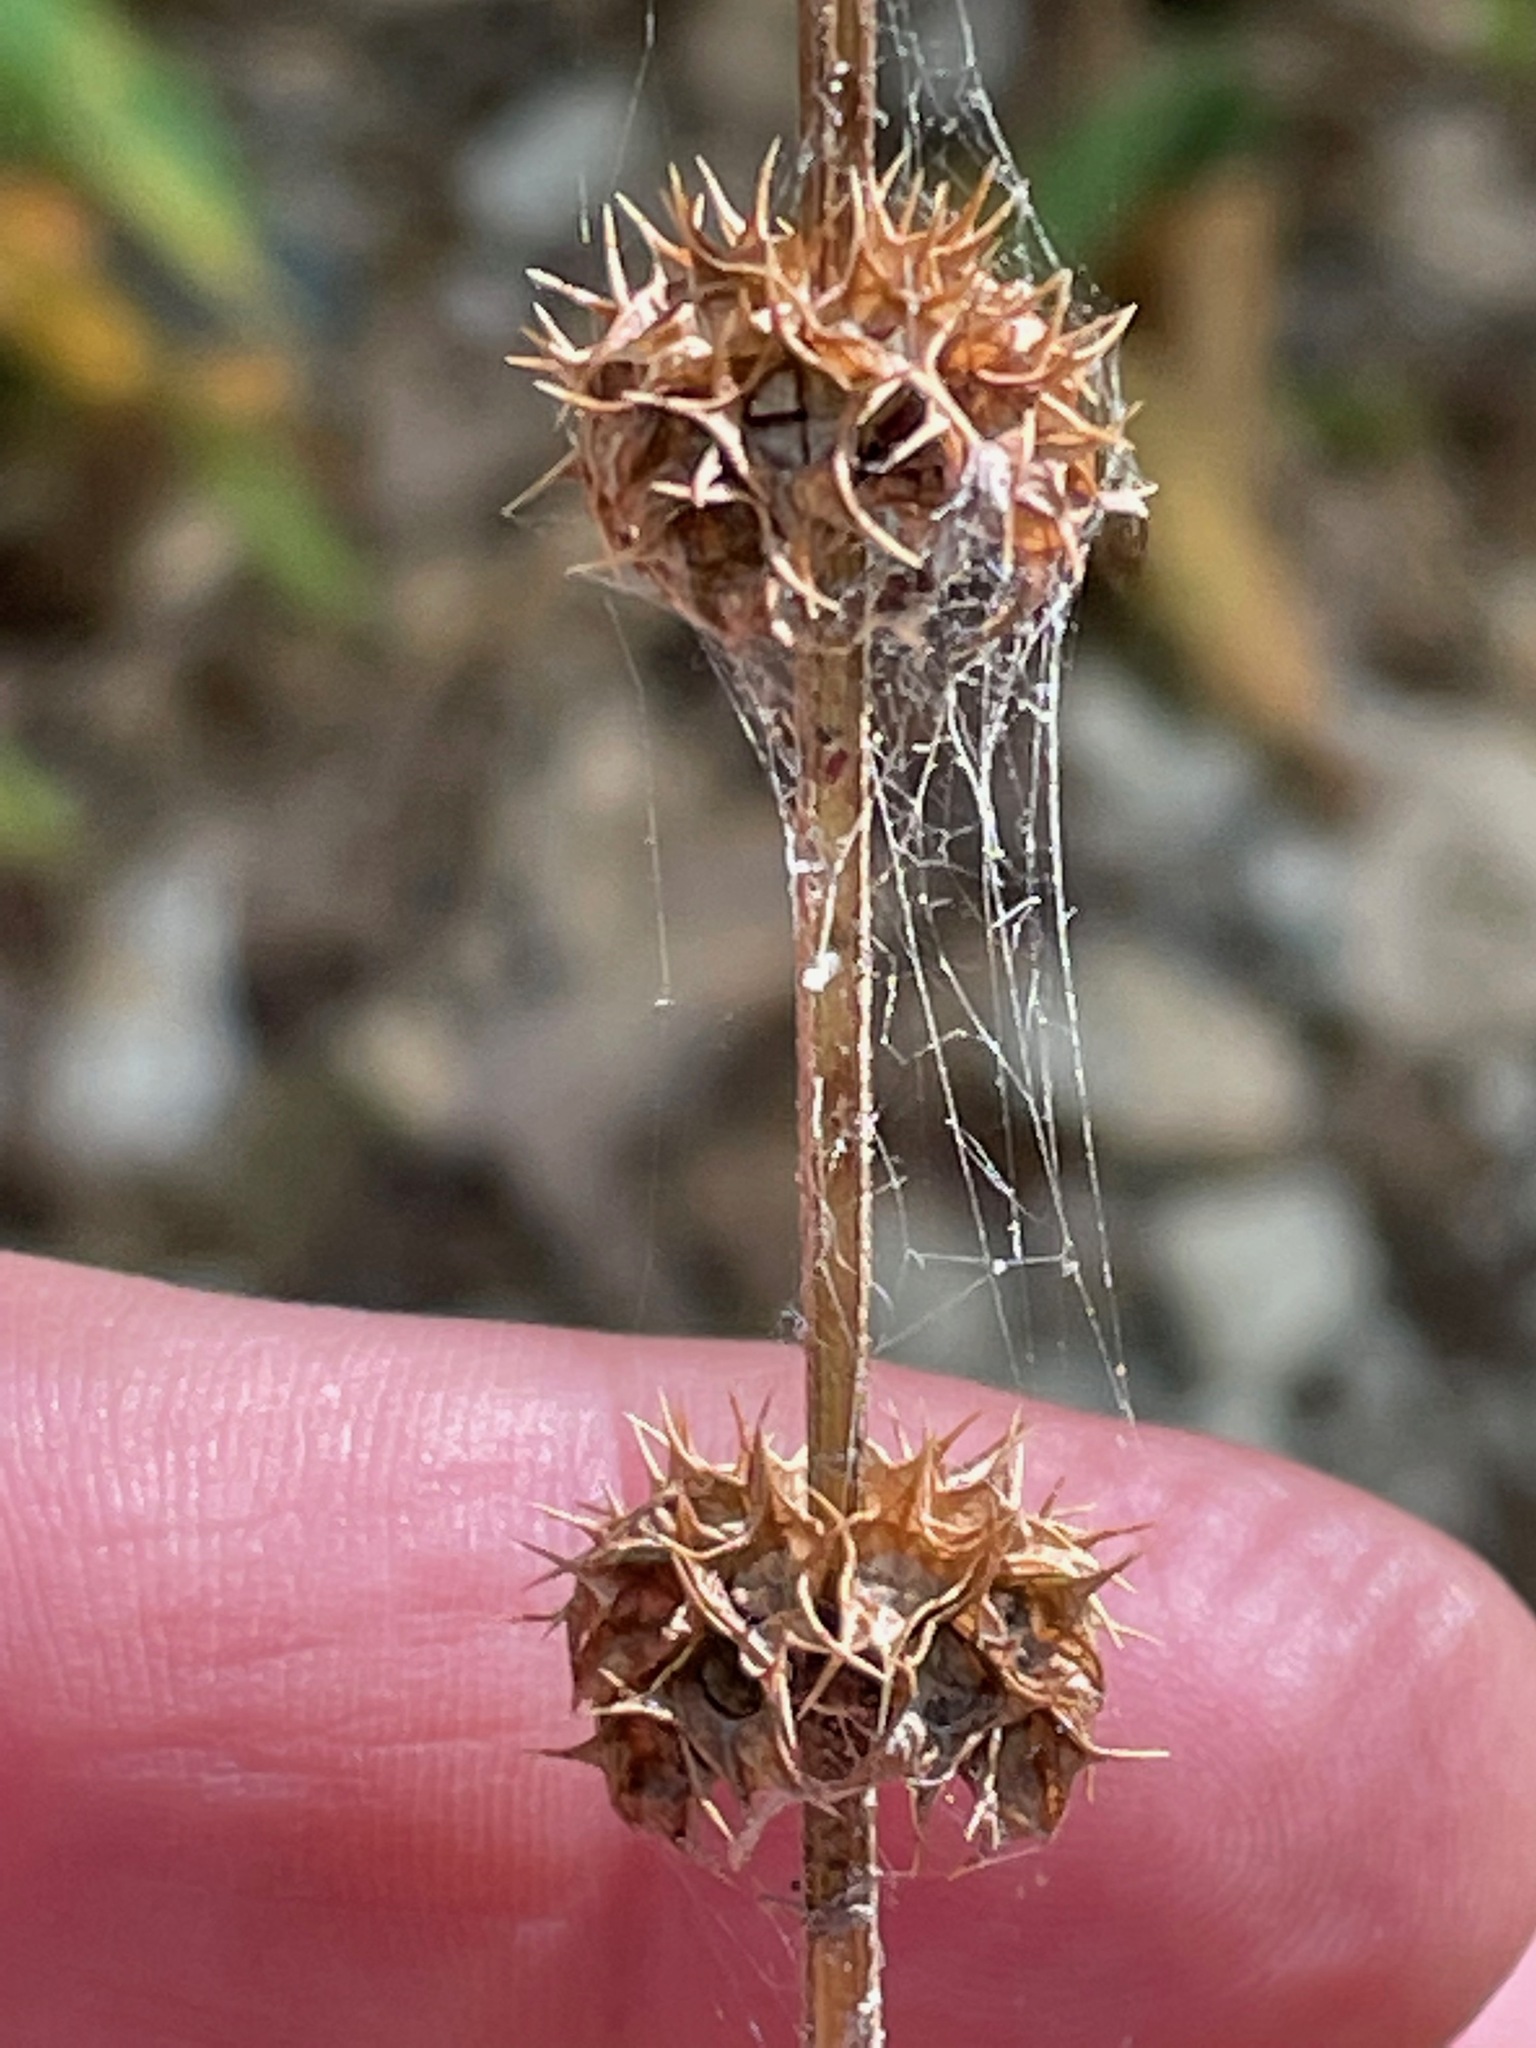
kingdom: Plantae
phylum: Tracheophyta
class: Magnoliopsida
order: Lamiales
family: Lamiaceae
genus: Leonurus
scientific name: Leonurus cardiaca
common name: Motherwort
